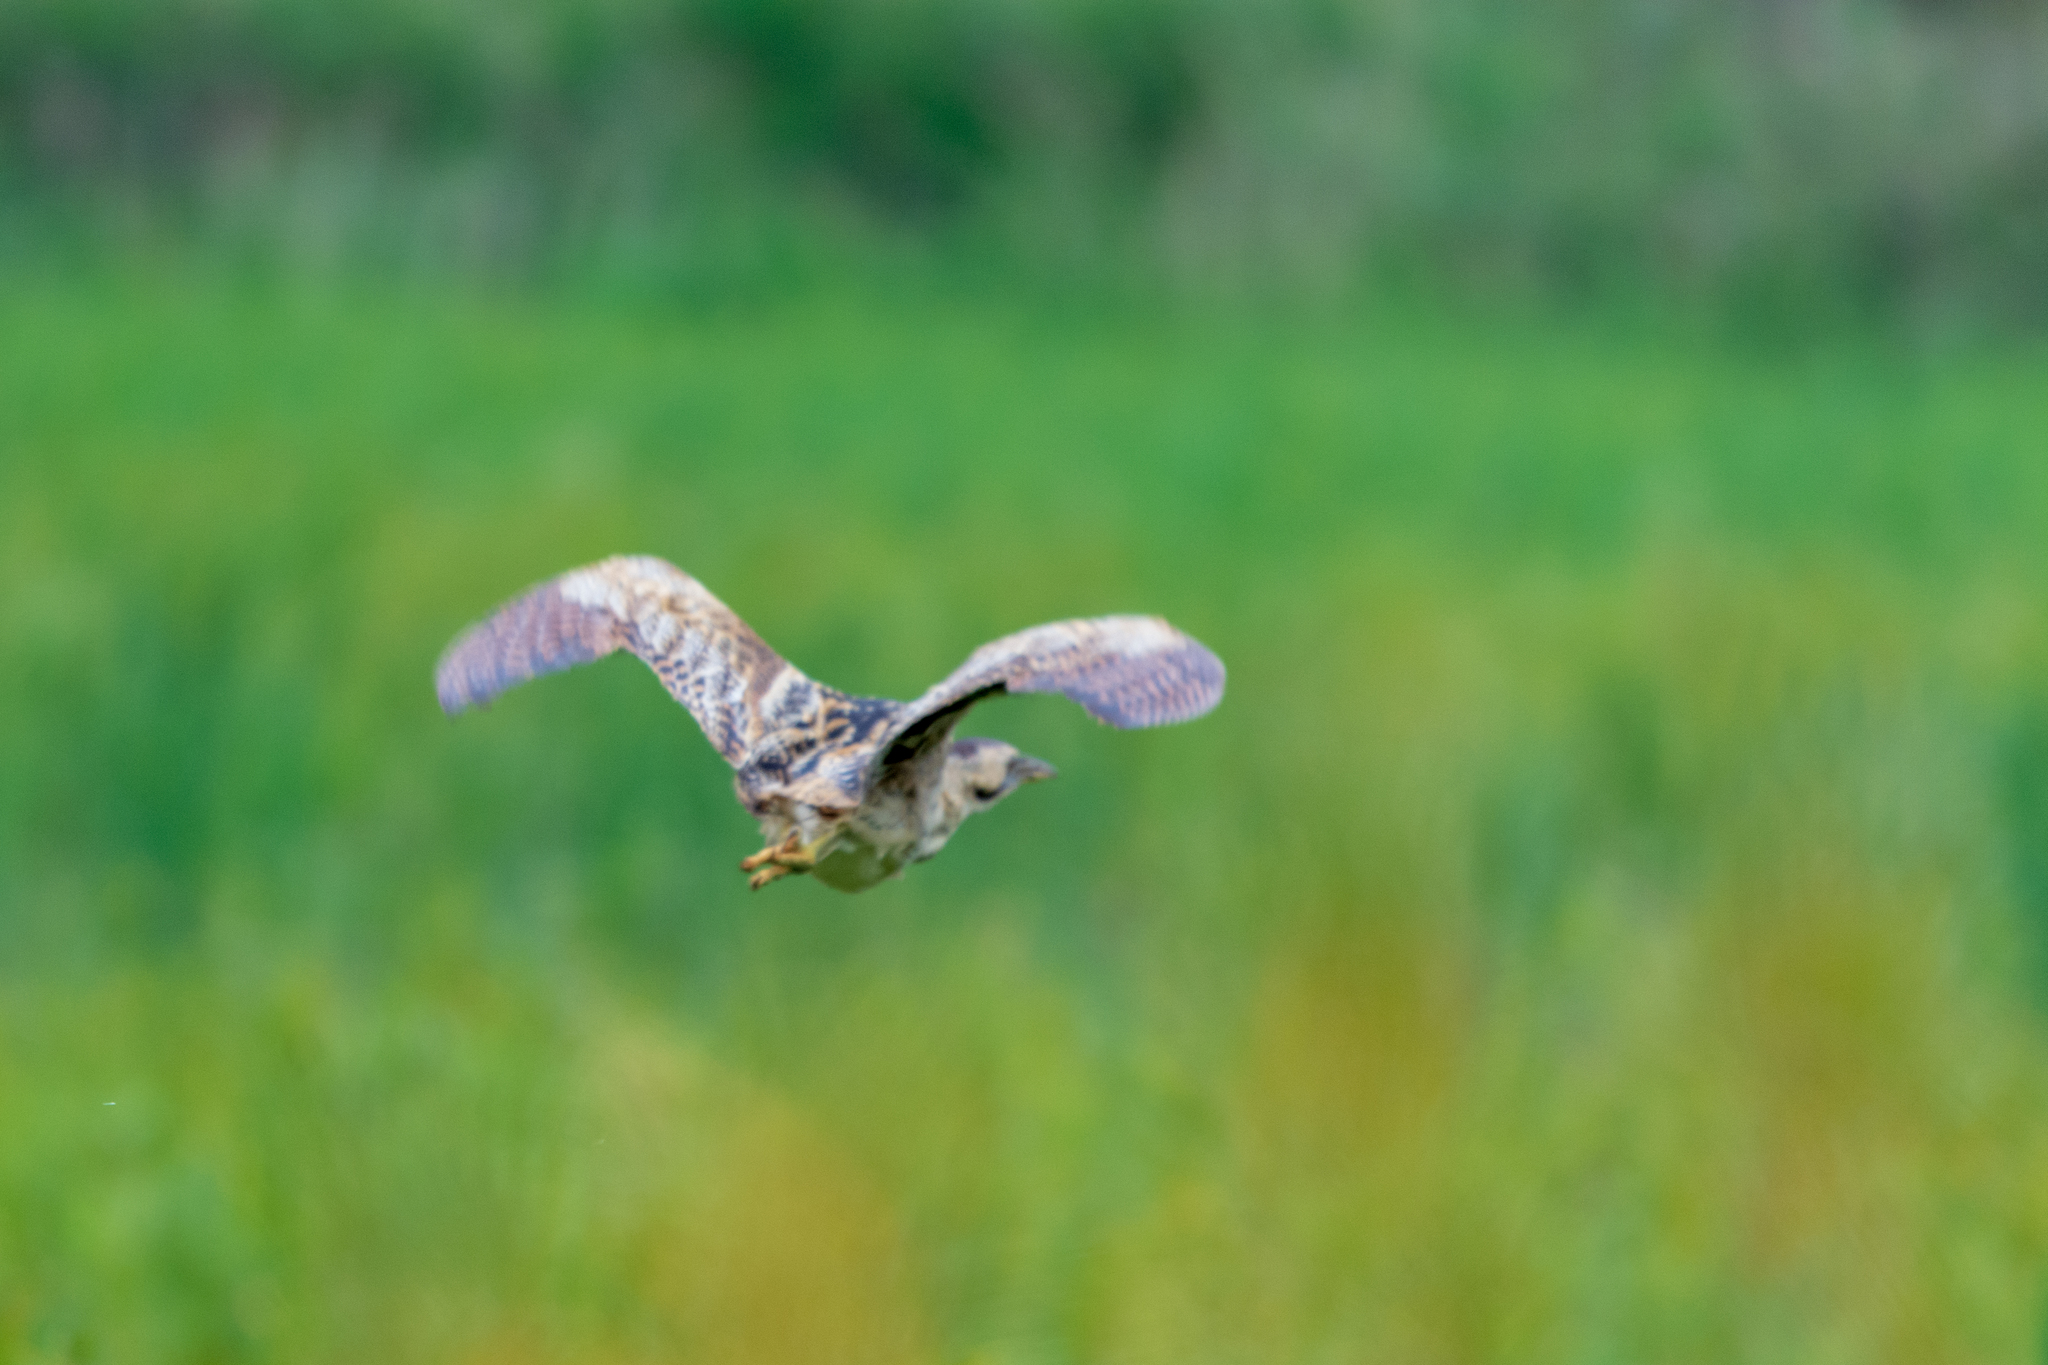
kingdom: Animalia
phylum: Chordata
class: Aves
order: Pelecaniformes
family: Ardeidae
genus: Botaurus
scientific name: Botaurus stellaris
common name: Eurasian bittern
